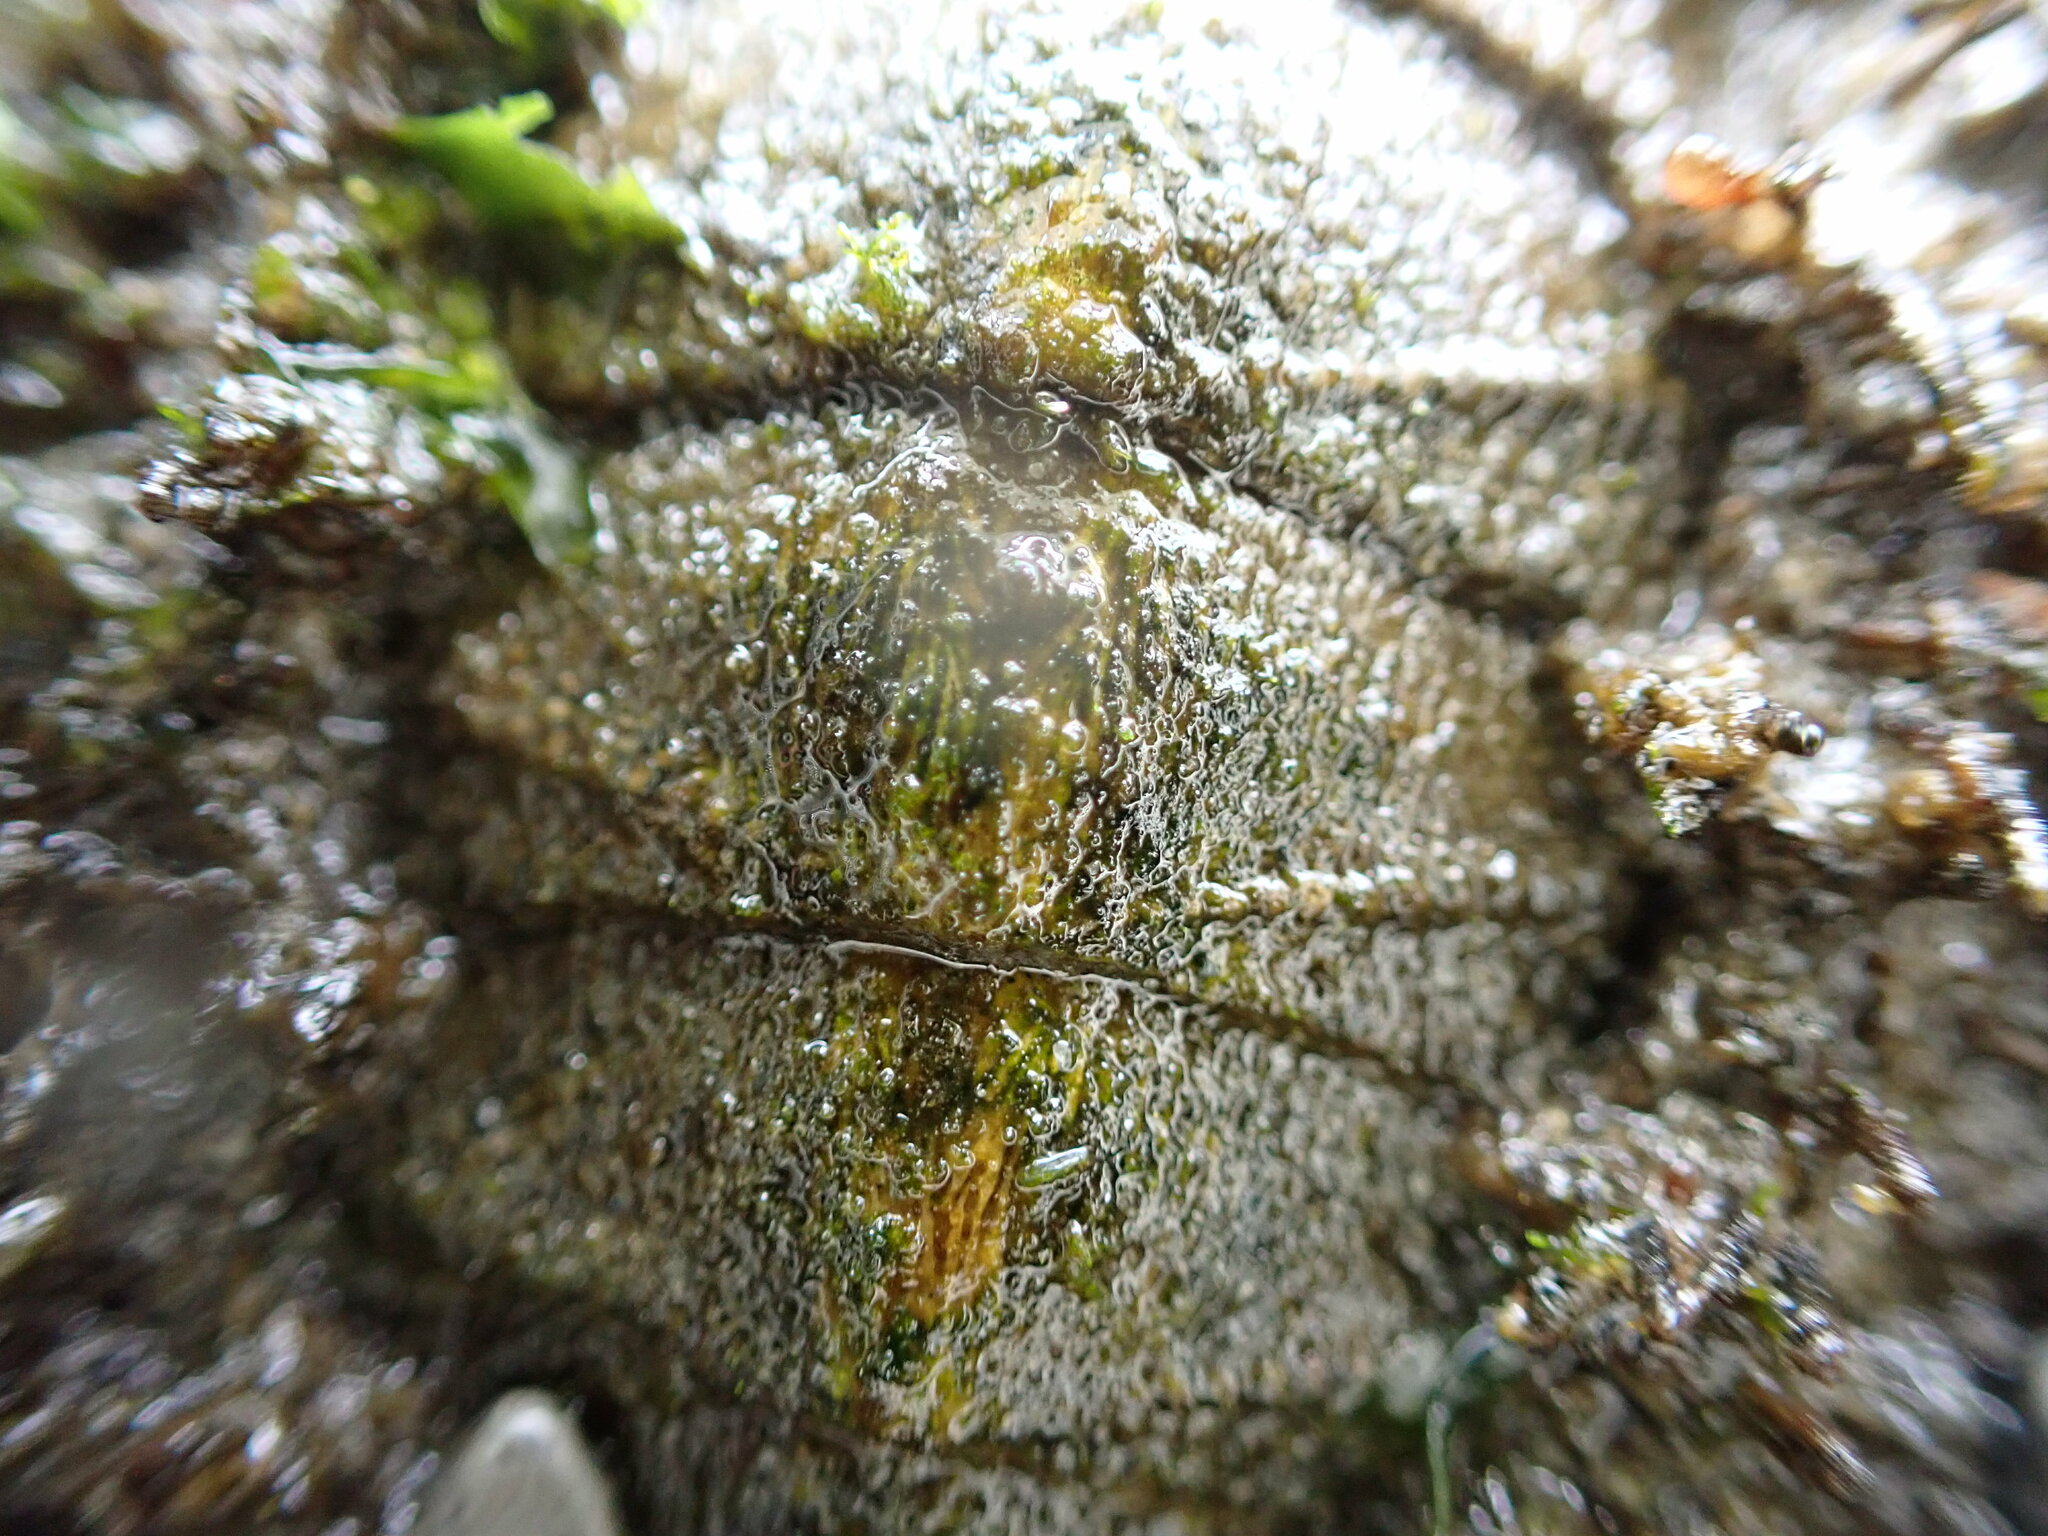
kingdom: Animalia
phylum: Mollusca
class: Polyplacophora
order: Chitonida
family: Mopaliidae
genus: Mopalia
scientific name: Mopalia muscosa
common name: Mossy chiton
